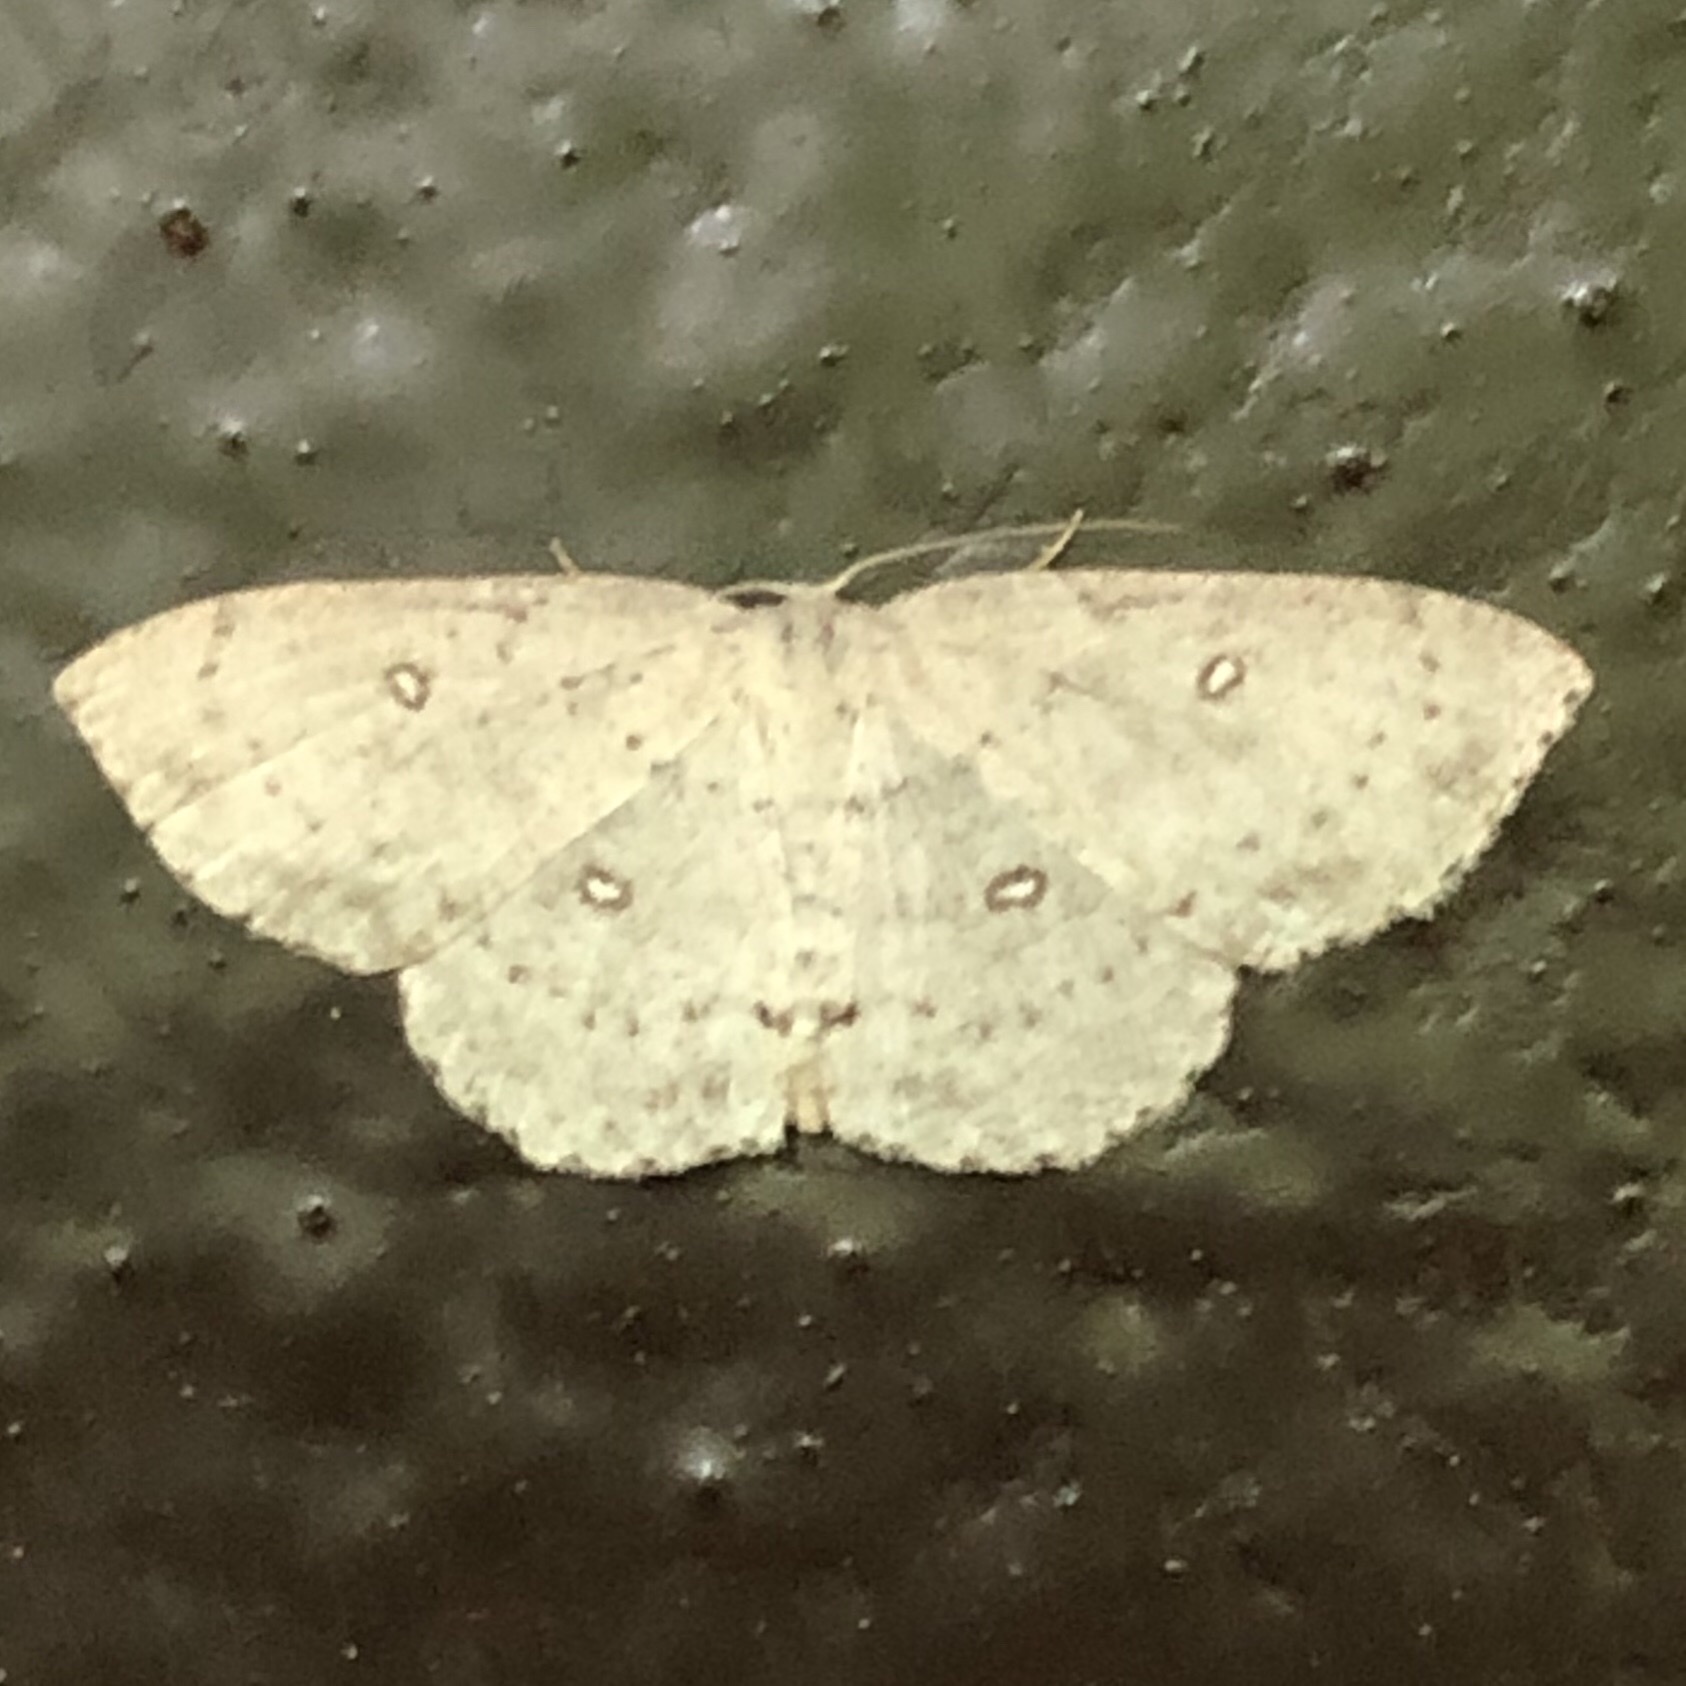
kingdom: Animalia
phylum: Arthropoda
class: Insecta
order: Lepidoptera
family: Geometridae
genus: Cyclophora
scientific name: Cyclophora pendulinaria
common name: Sweet fern geometer
